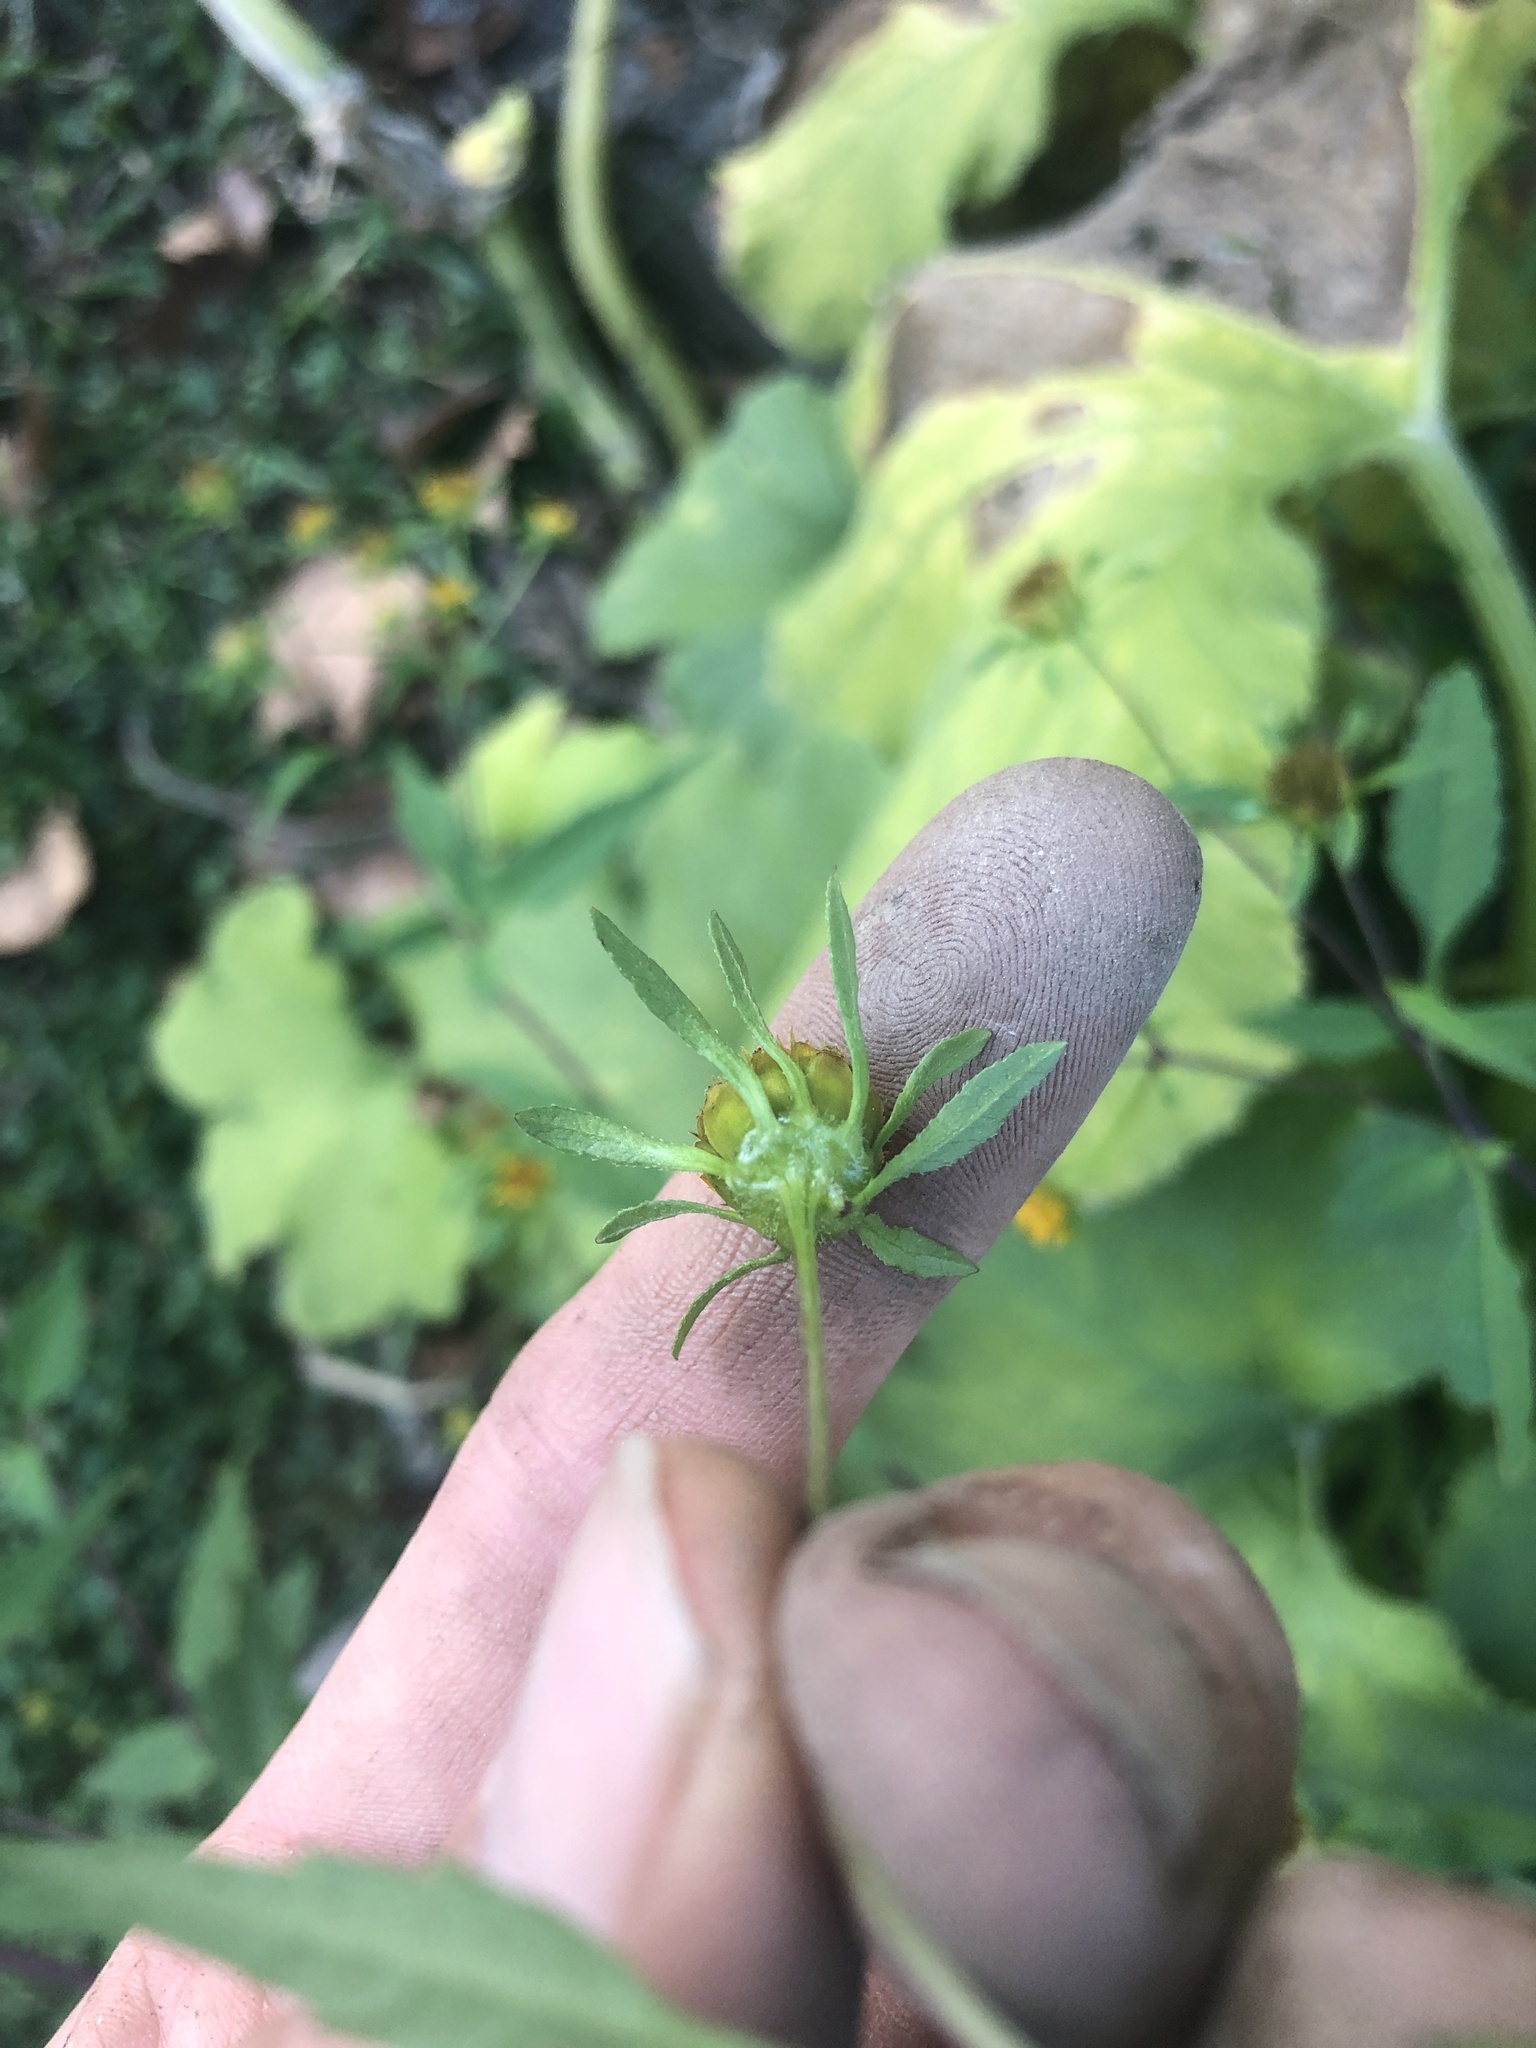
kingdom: Plantae
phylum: Tracheophyta
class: Magnoliopsida
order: Asterales
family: Asteraceae
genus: Bidens
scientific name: Bidens frondosa
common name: Beggarticks
